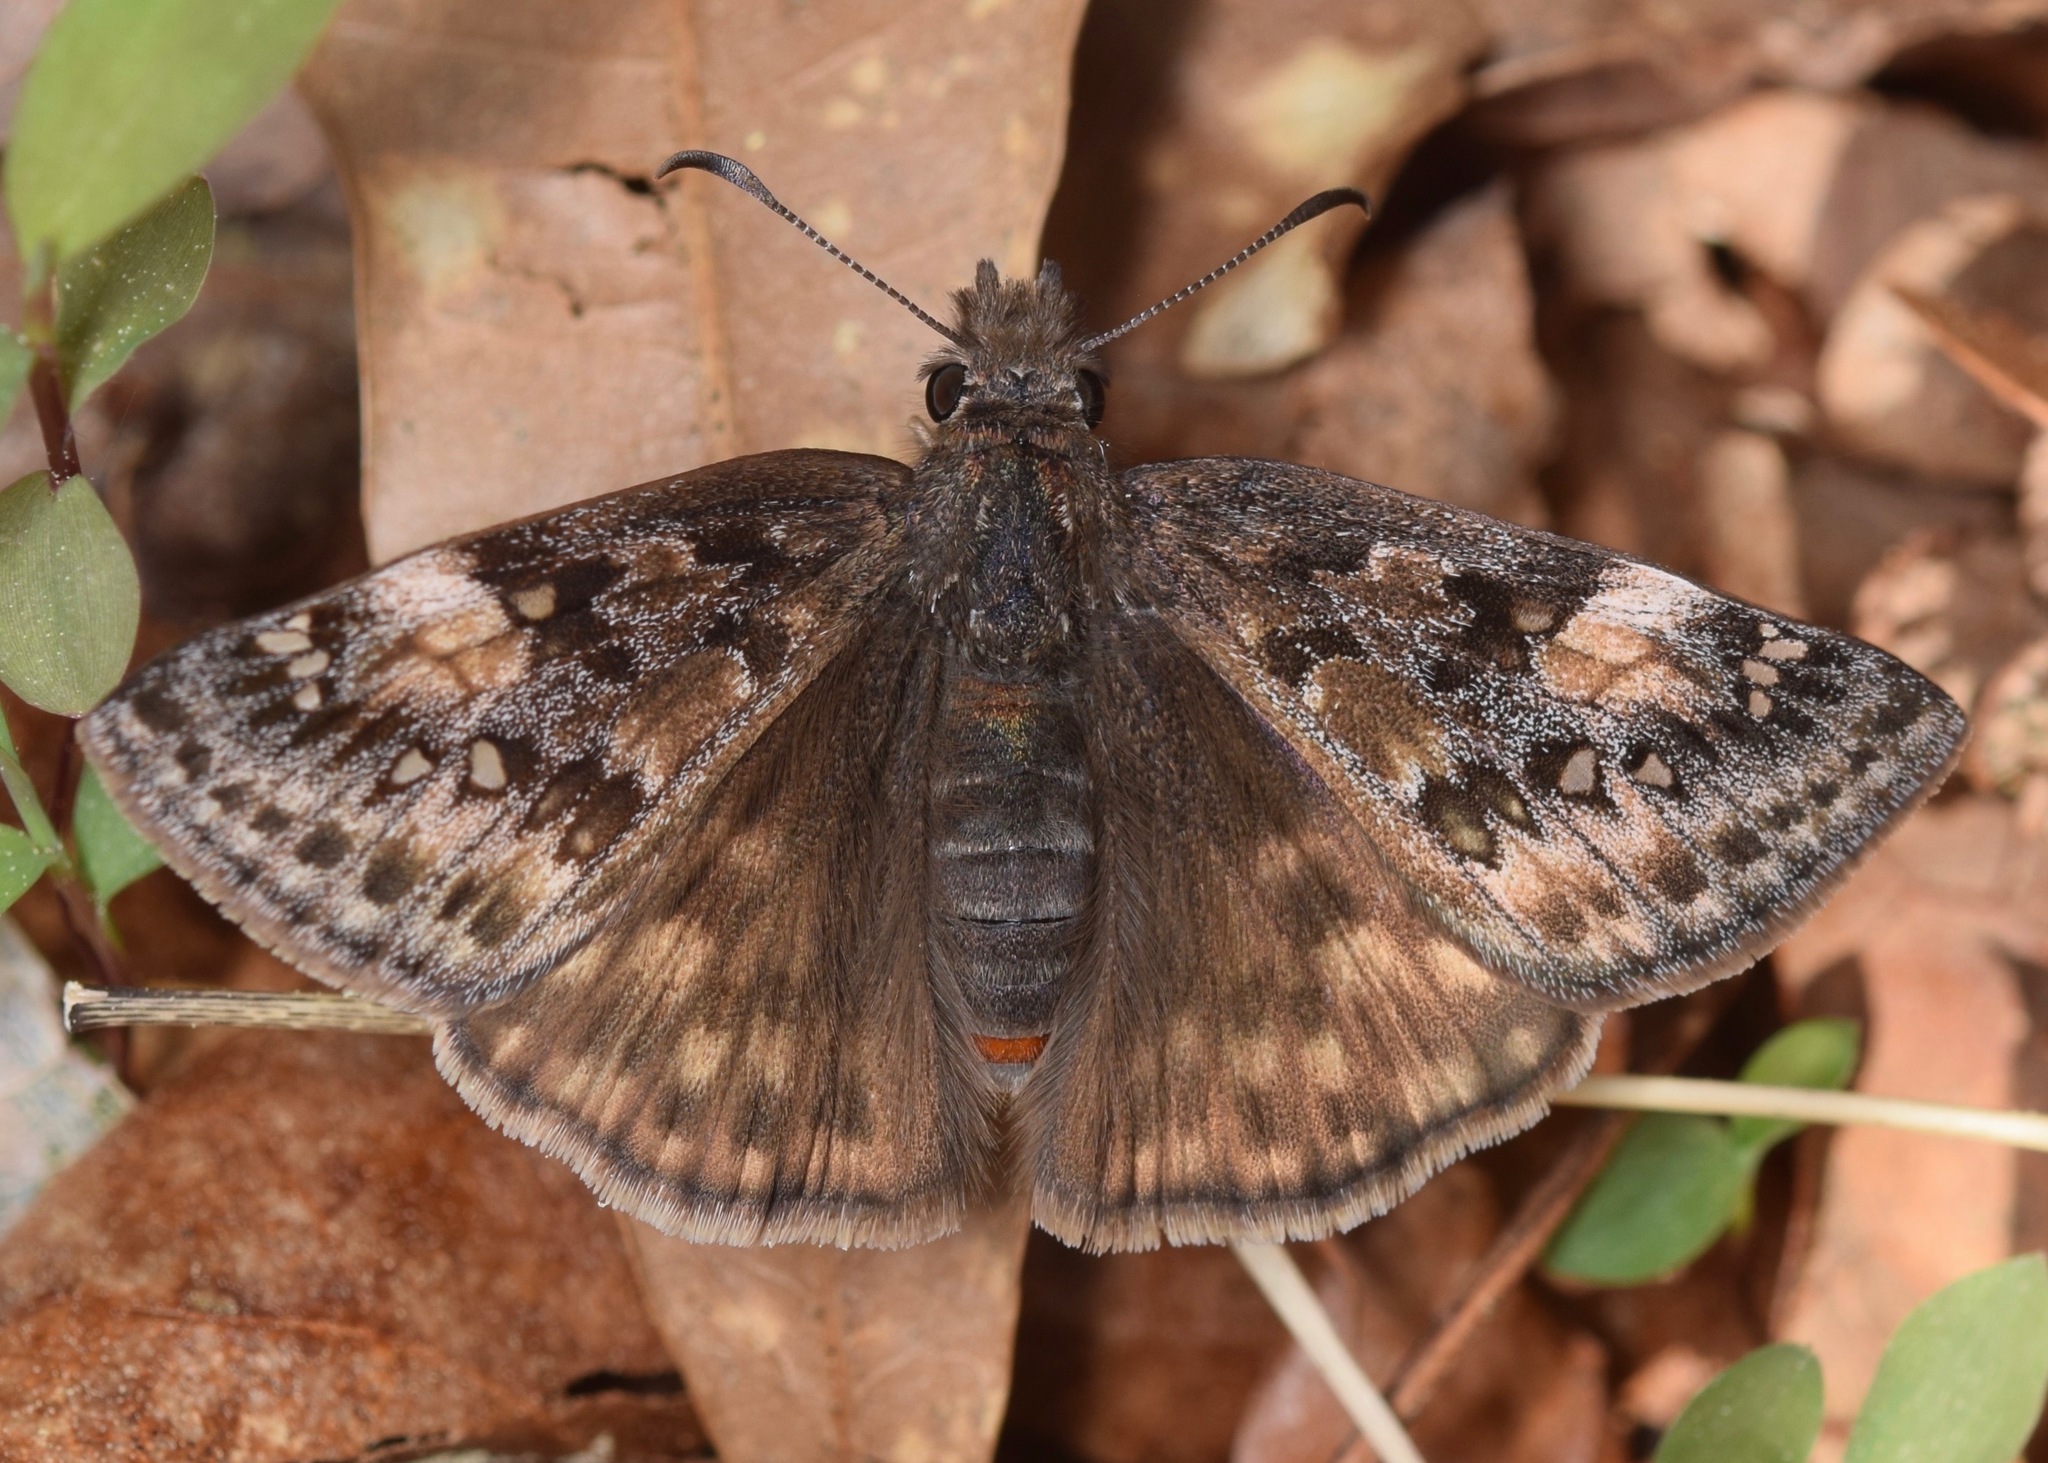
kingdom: Animalia
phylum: Arthropoda
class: Insecta
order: Lepidoptera
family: Hesperiidae
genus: Erynnis
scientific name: Erynnis juvenalis
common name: Juvenal's duskywing
